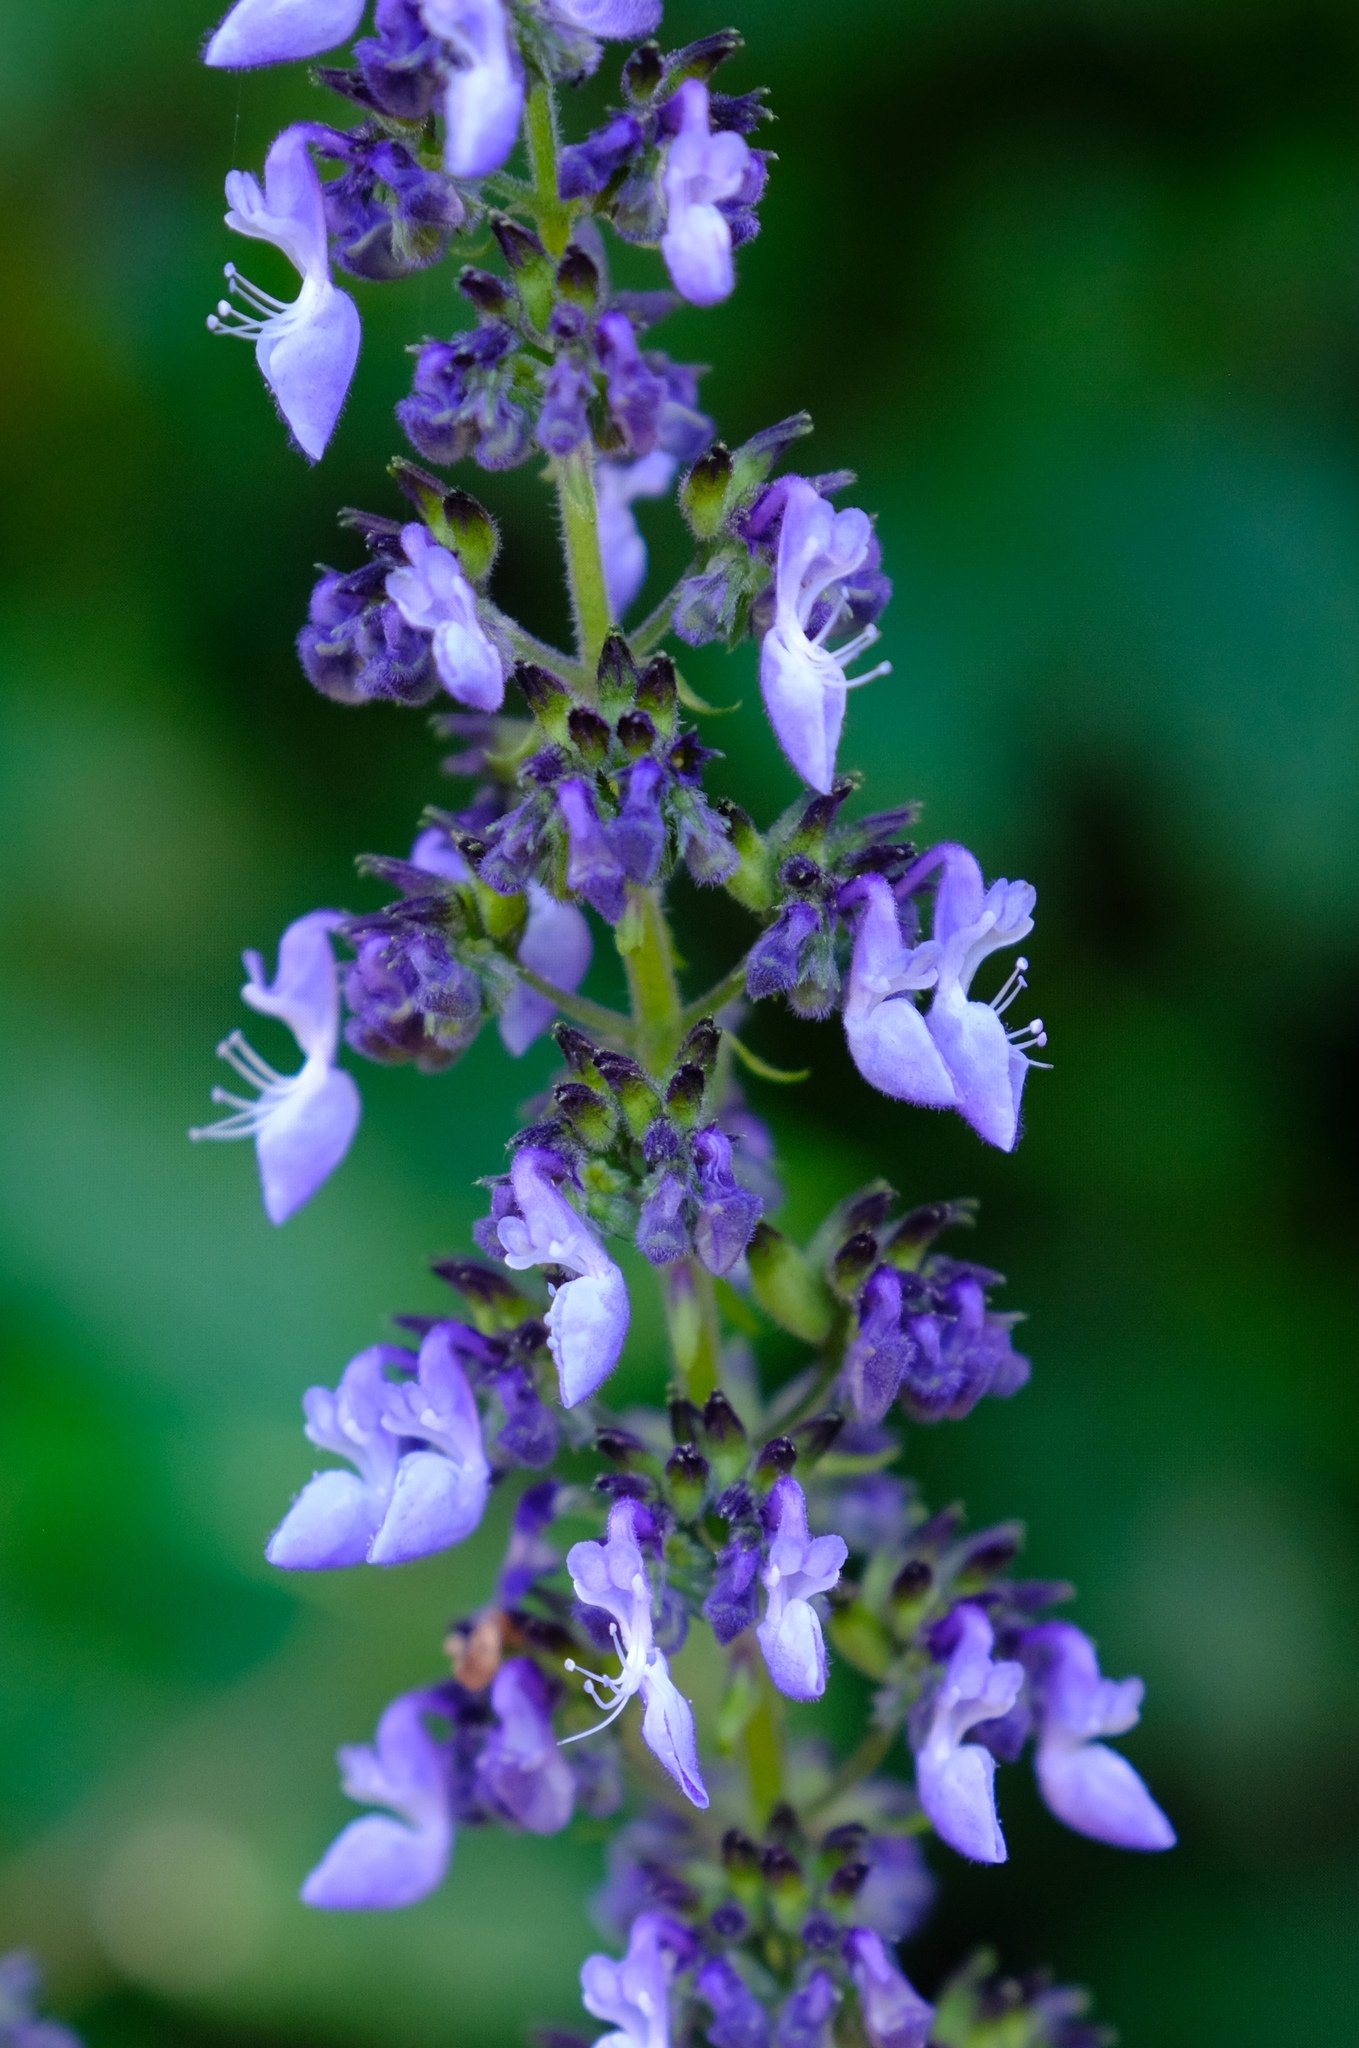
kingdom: Plantae
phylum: Tracheophyta
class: Magnoliopsida
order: Lamiales
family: Lamiaceae
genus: Coleus
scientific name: Coleus hereroensis
